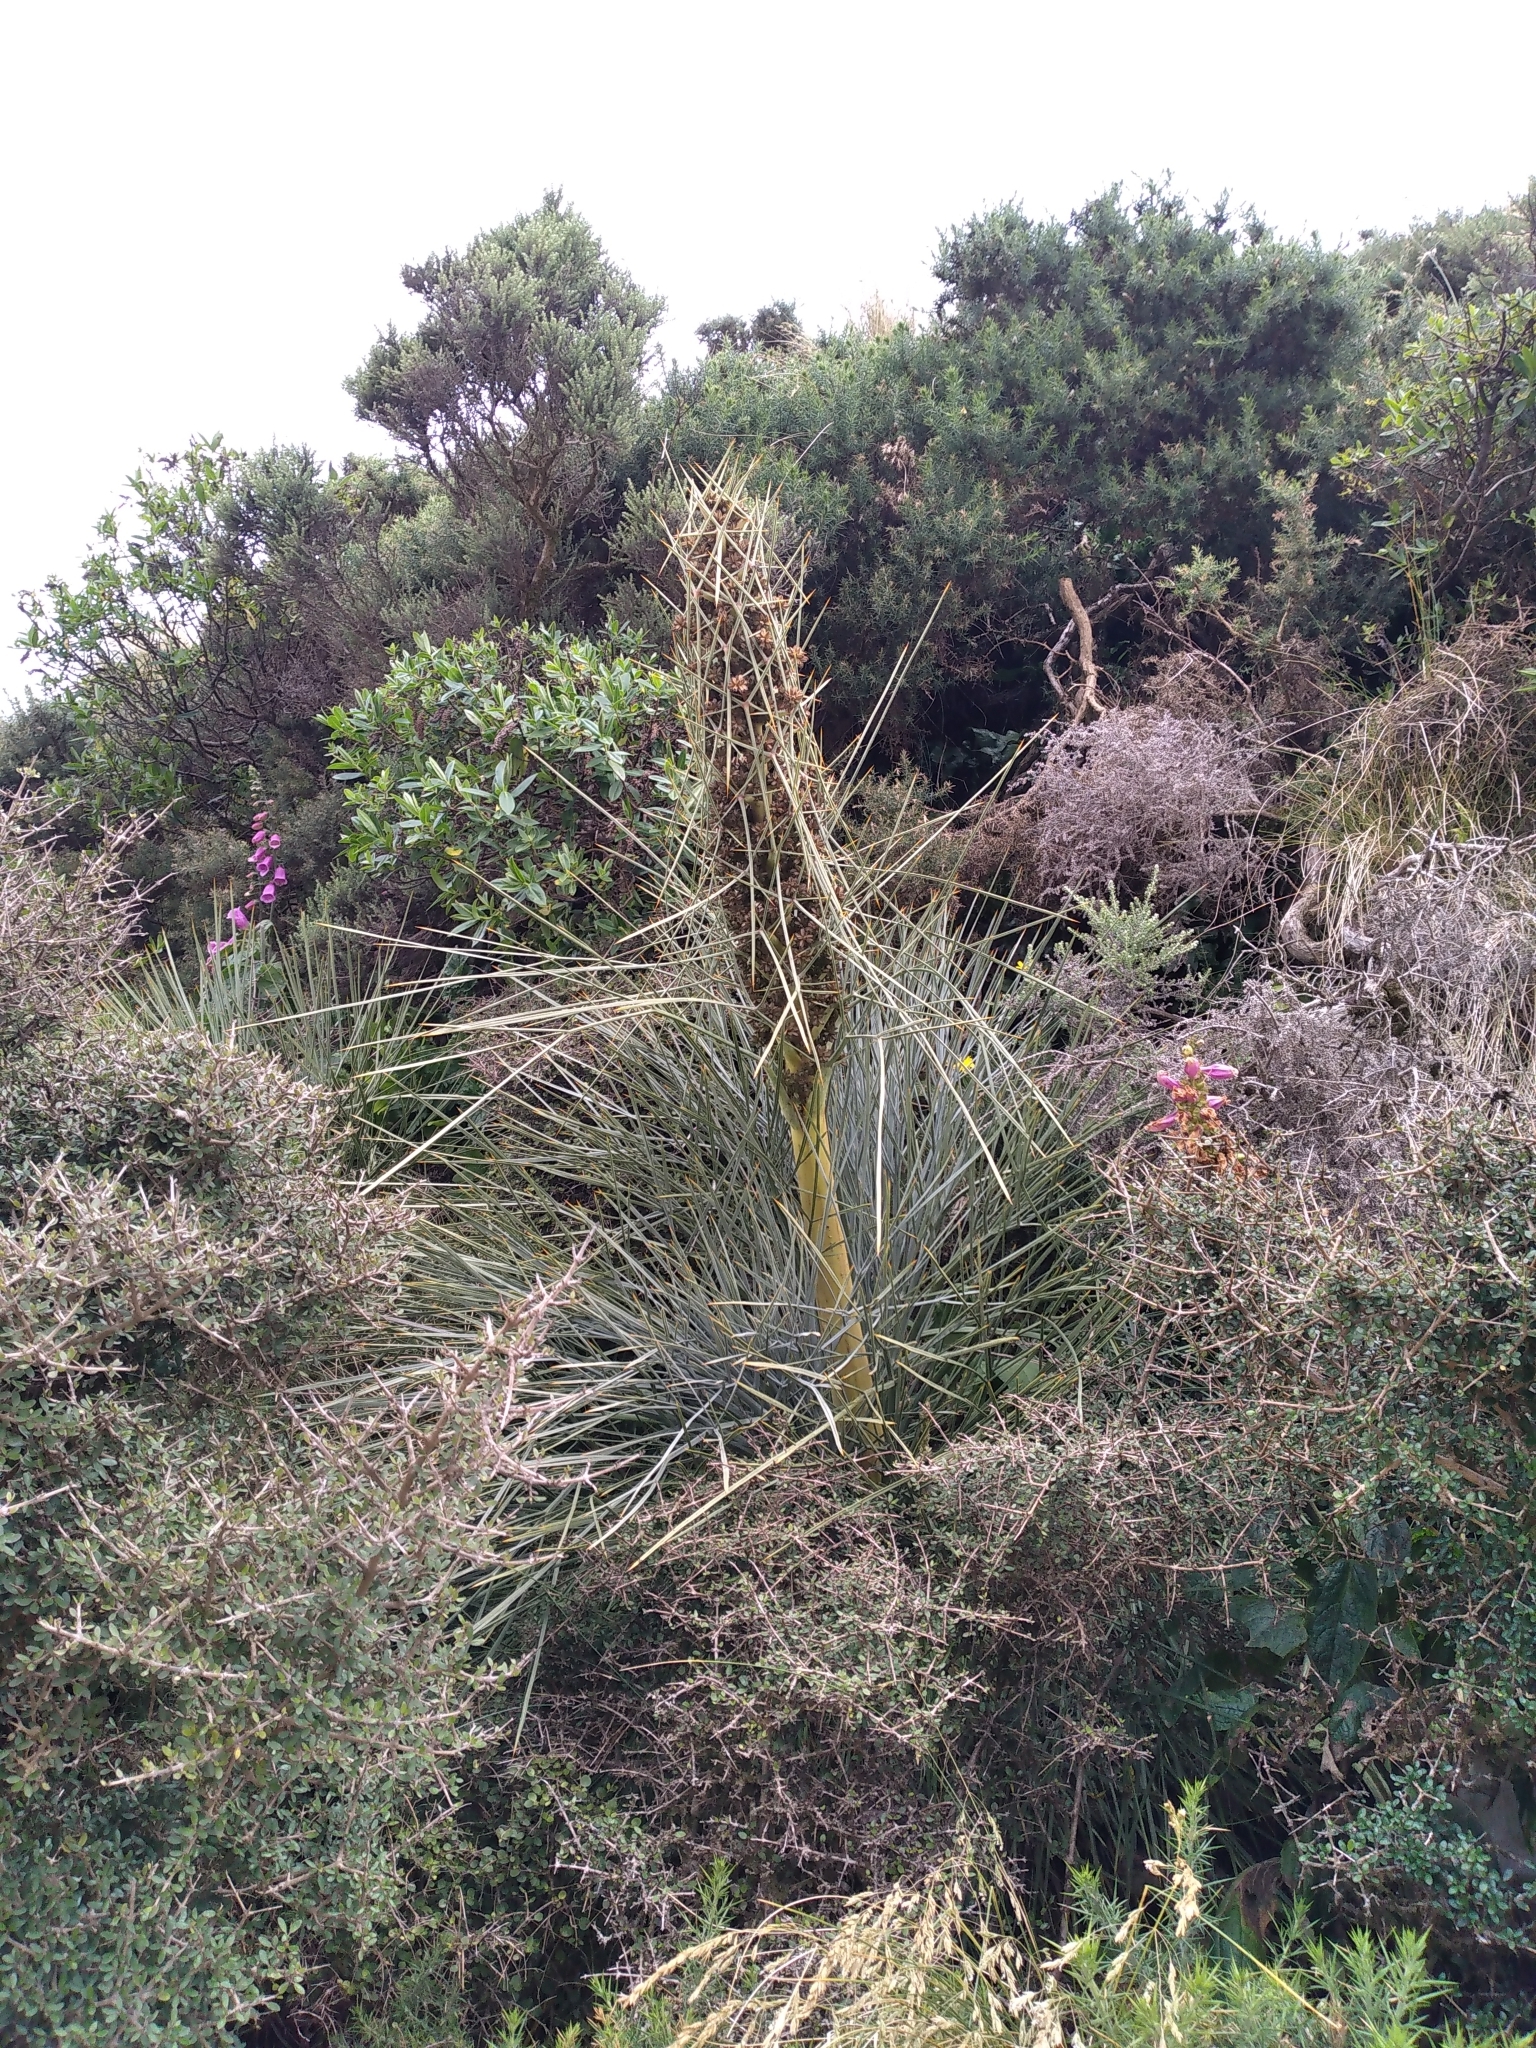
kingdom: Plantae
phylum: Tracheophyta
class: Magnoliopsida
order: Apiales
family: Apiaceae
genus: Aciphylla
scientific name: Aciphylla squarrosa
